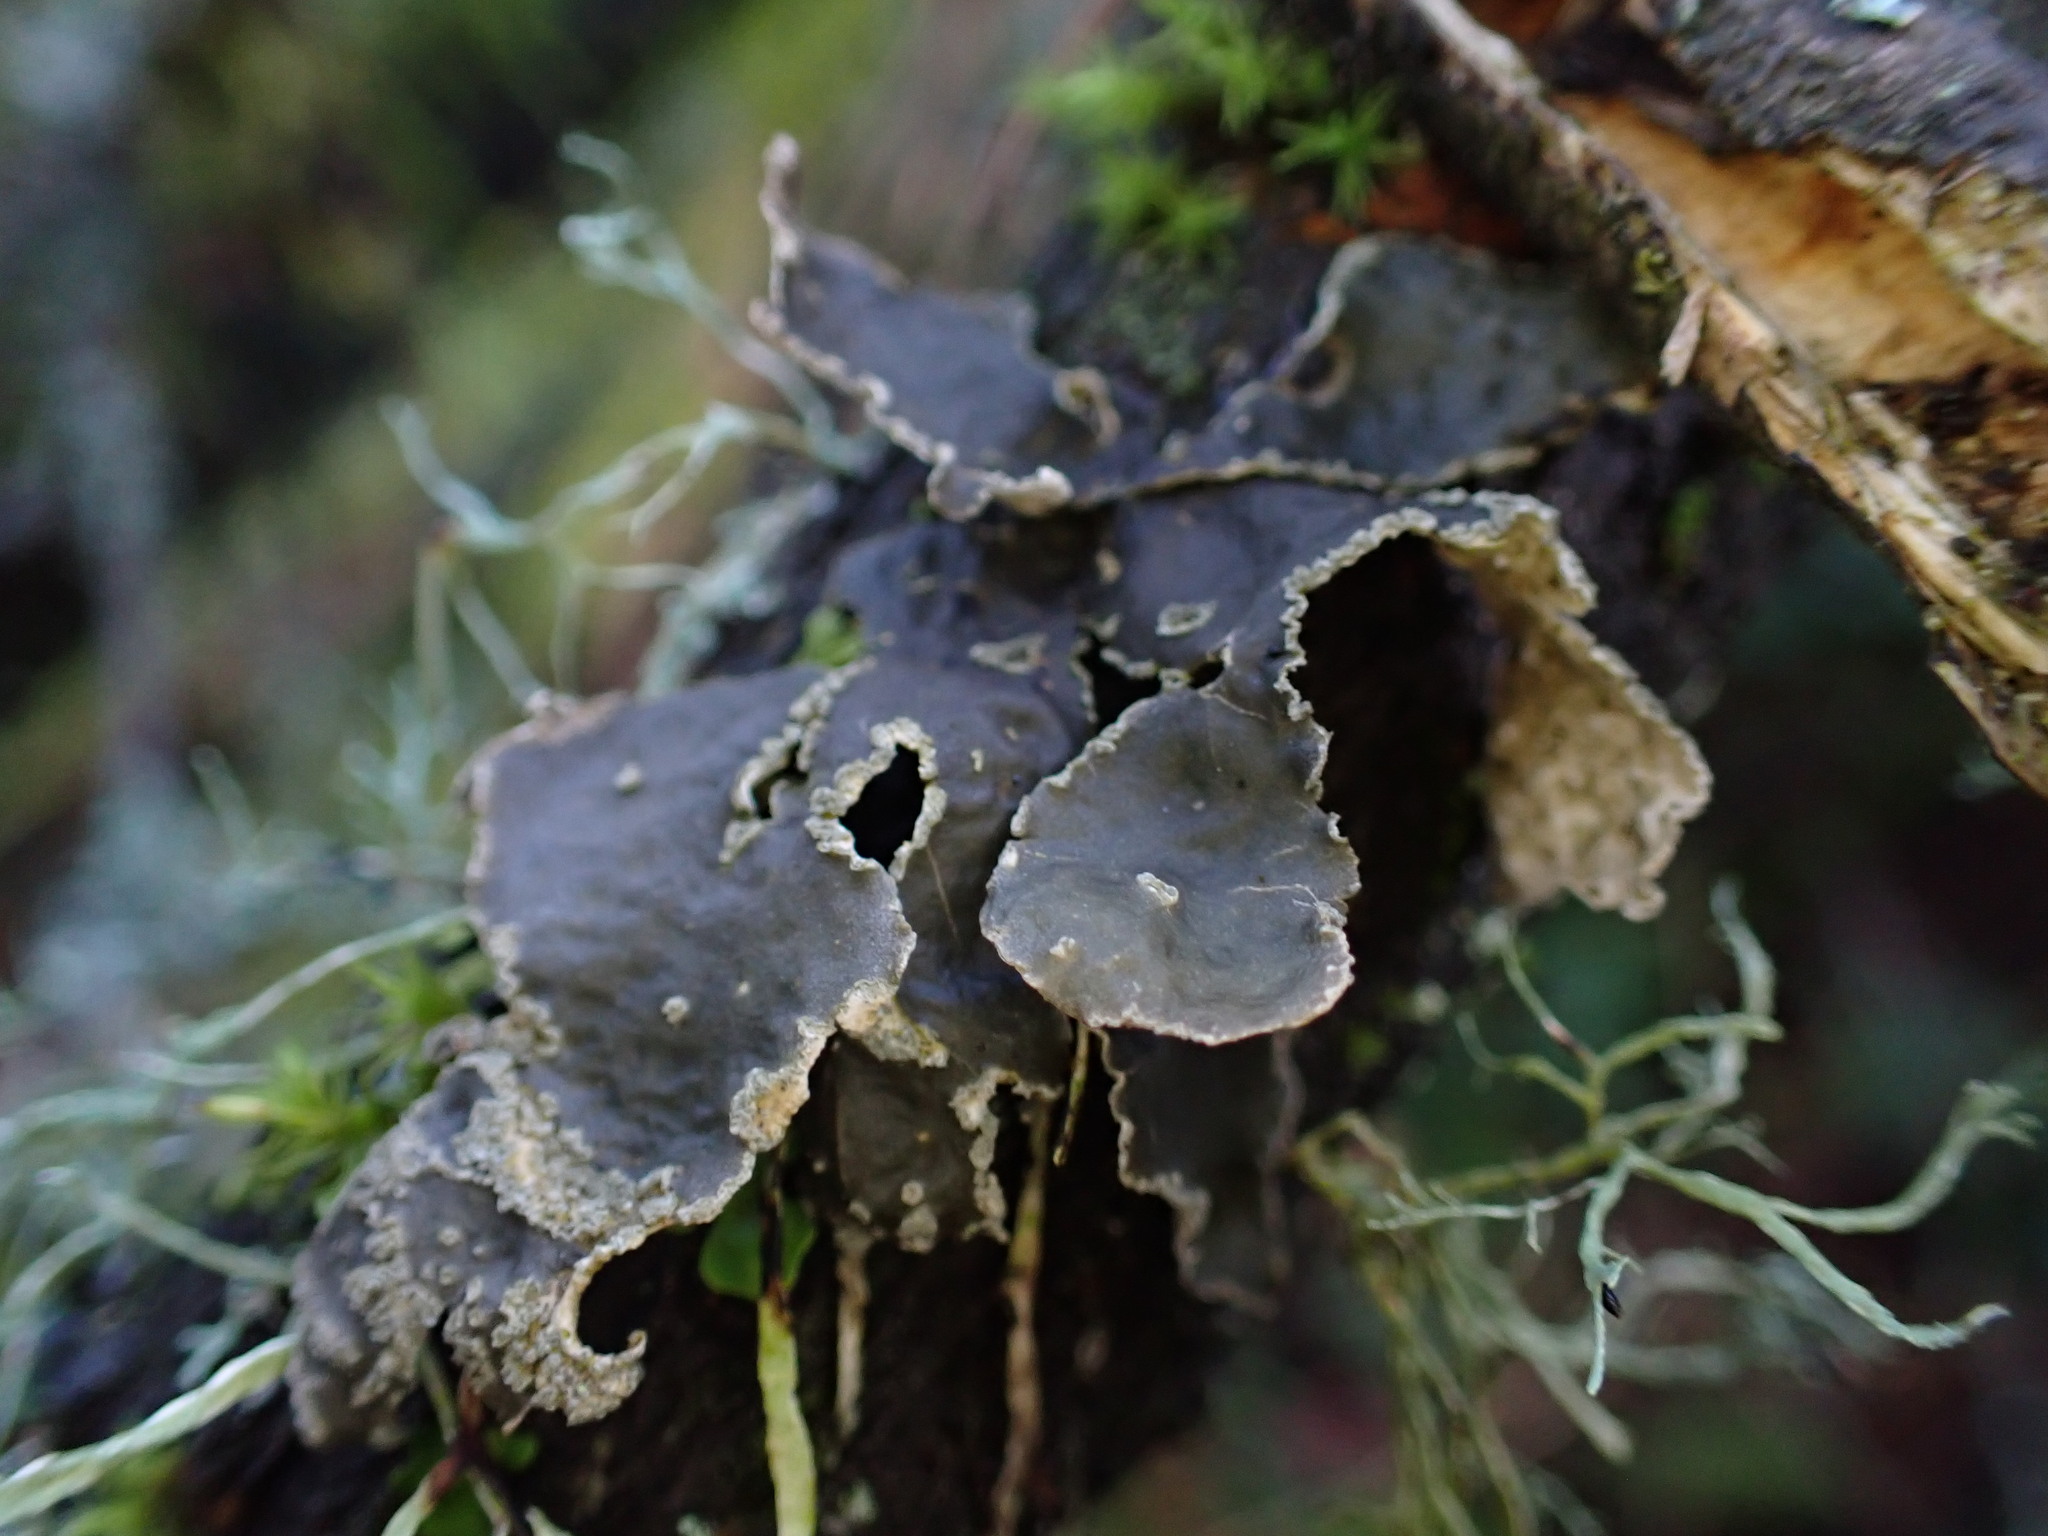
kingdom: Fungi
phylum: Ascomycota
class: Lecanoromycetes
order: Peltigerales
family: Lobariaceae
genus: Sticta
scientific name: Sticta limbata
